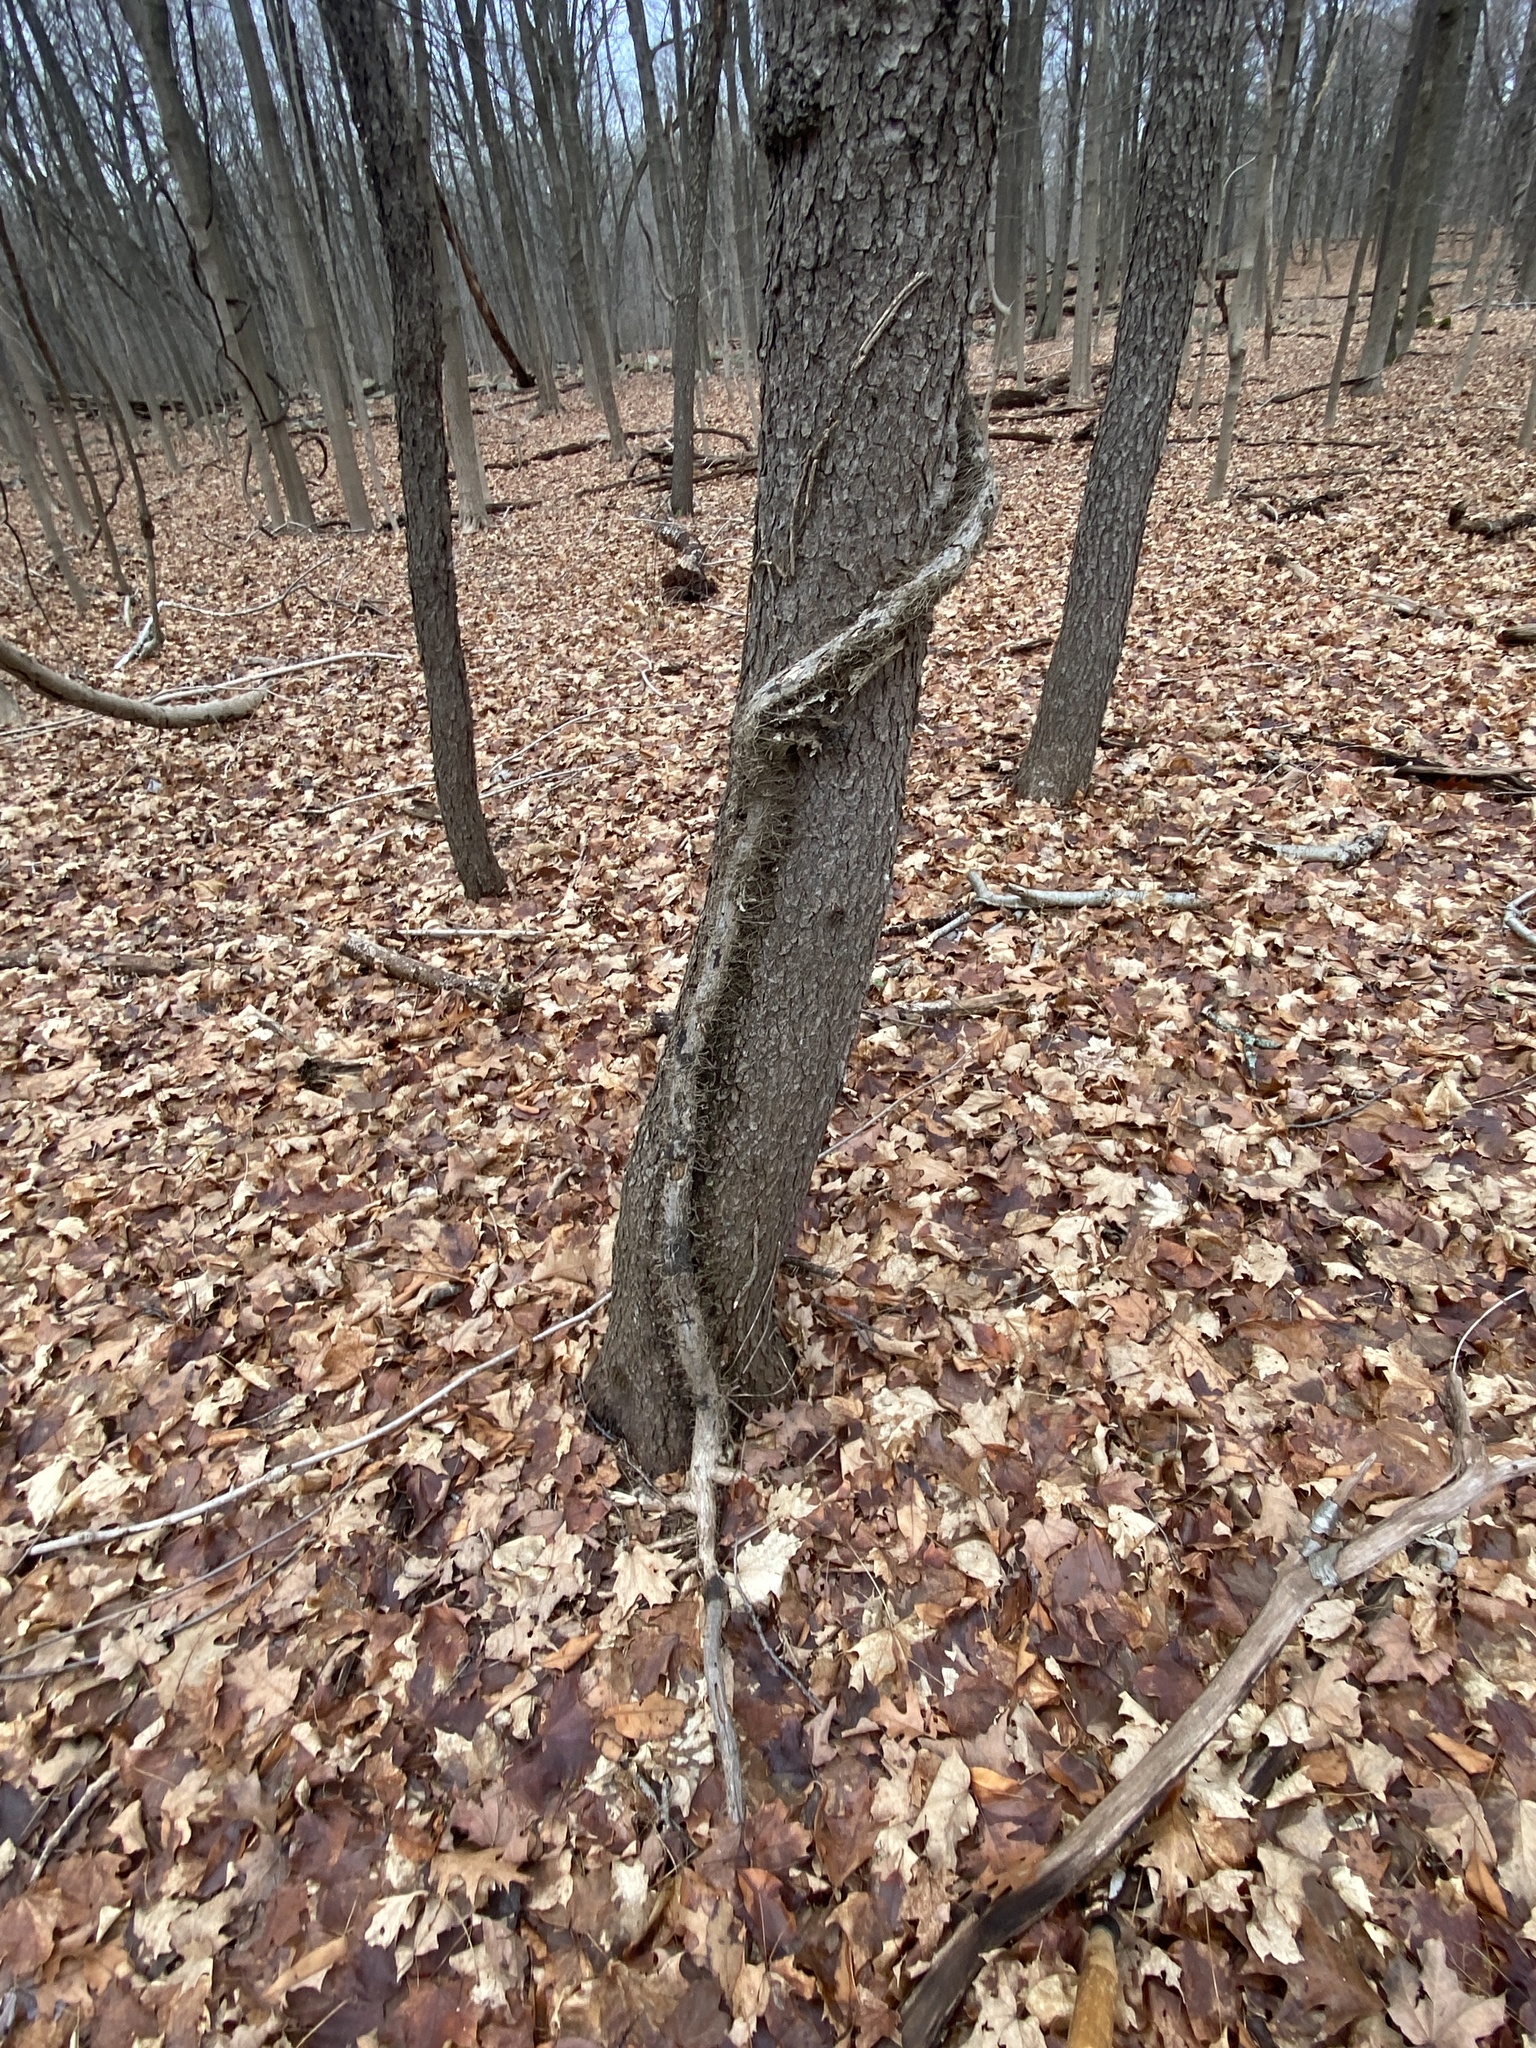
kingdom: Plantae
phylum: Tracheophyta
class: Magnoliopsida
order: Sapindales
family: Anacardiaceae
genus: Toxicodendron
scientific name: Toxicodendron radicans
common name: Poison ivy
